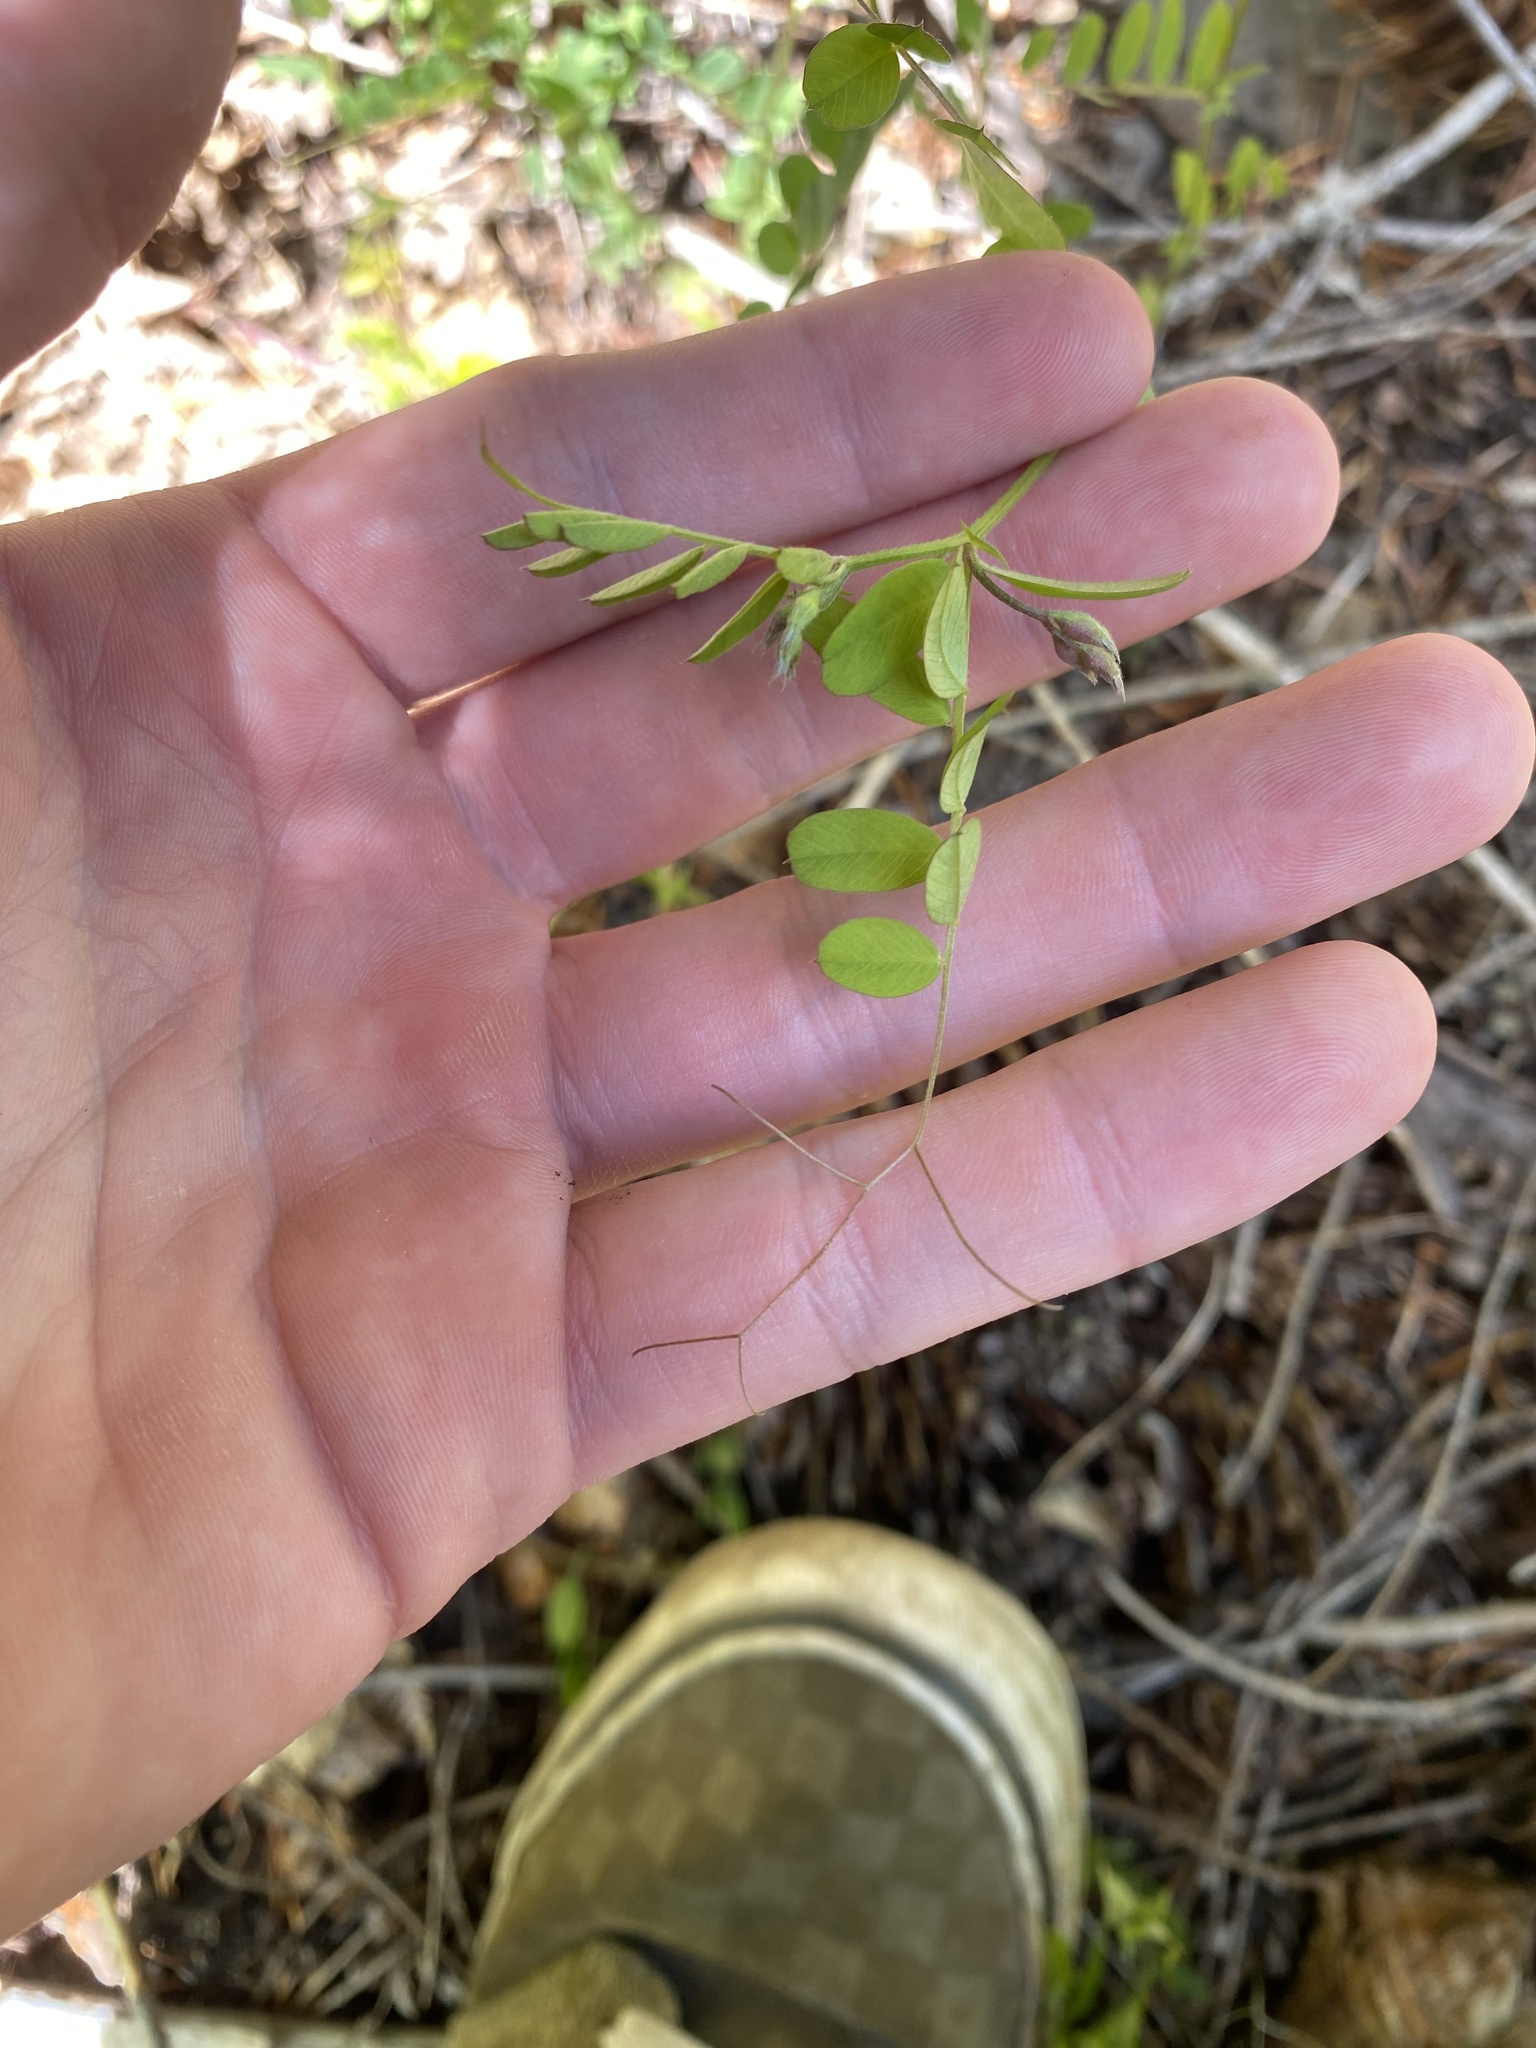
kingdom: Plantae
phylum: Tracheophyta
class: Magnoliopsida
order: Fabales
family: Fabaceae
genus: Vicia
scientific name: Vicia americana
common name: American vetch
